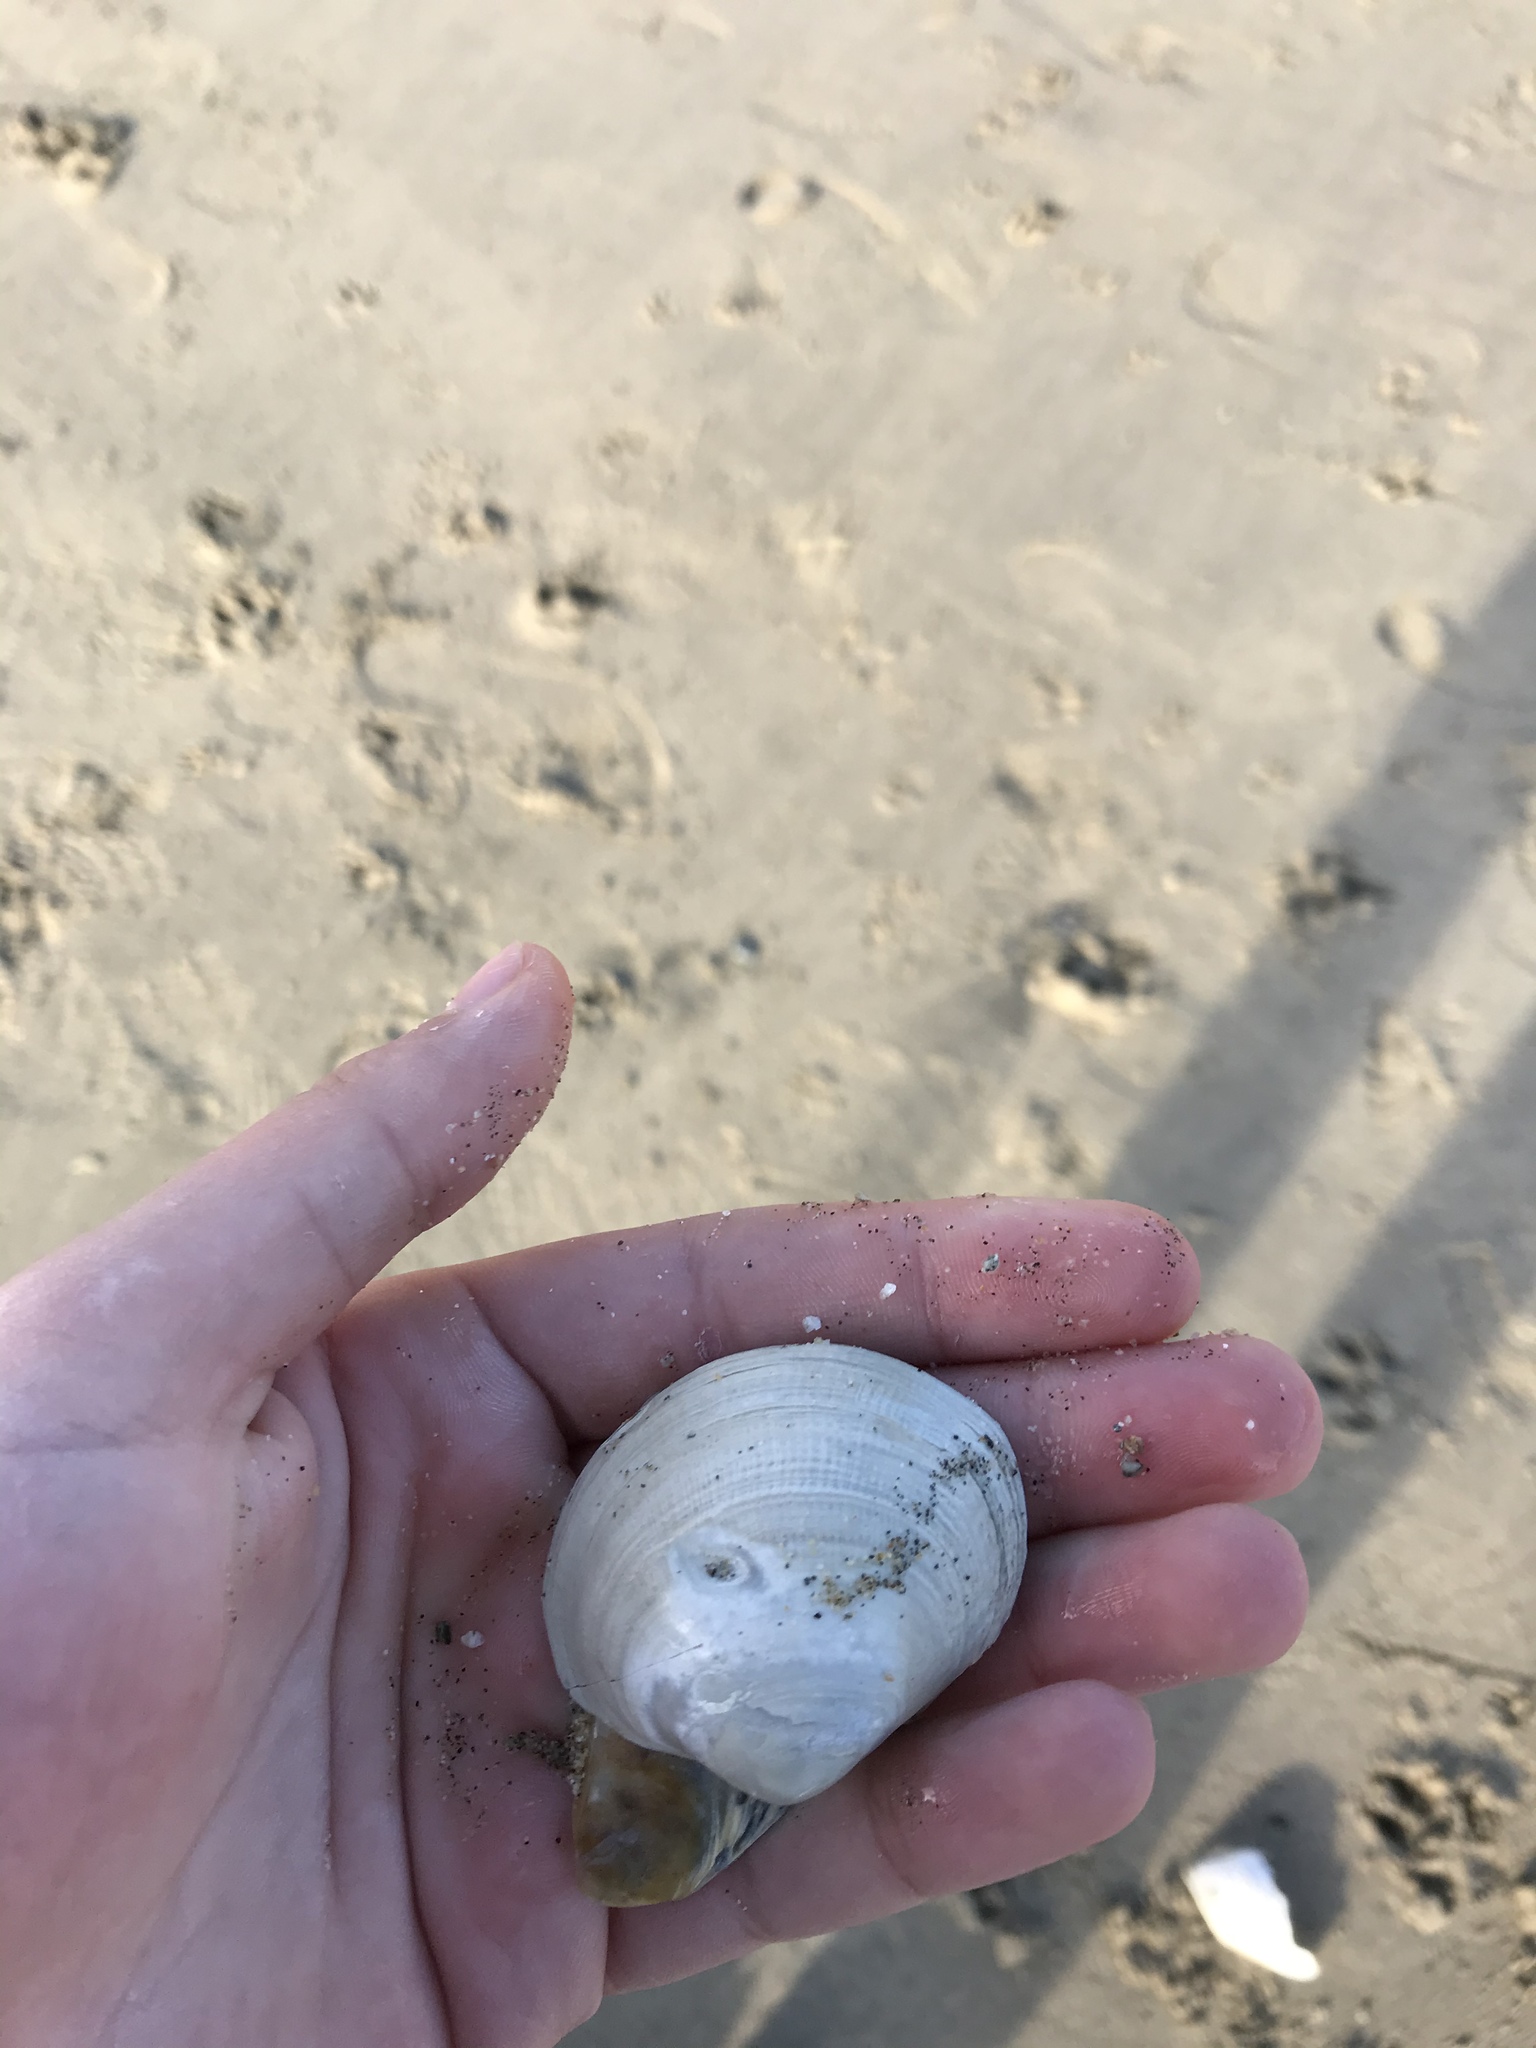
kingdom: Animalia
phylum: Mollusca
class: Bivalvia
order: Venerida
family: Veneridae
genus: Leukoma
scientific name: Leukoma staminea
